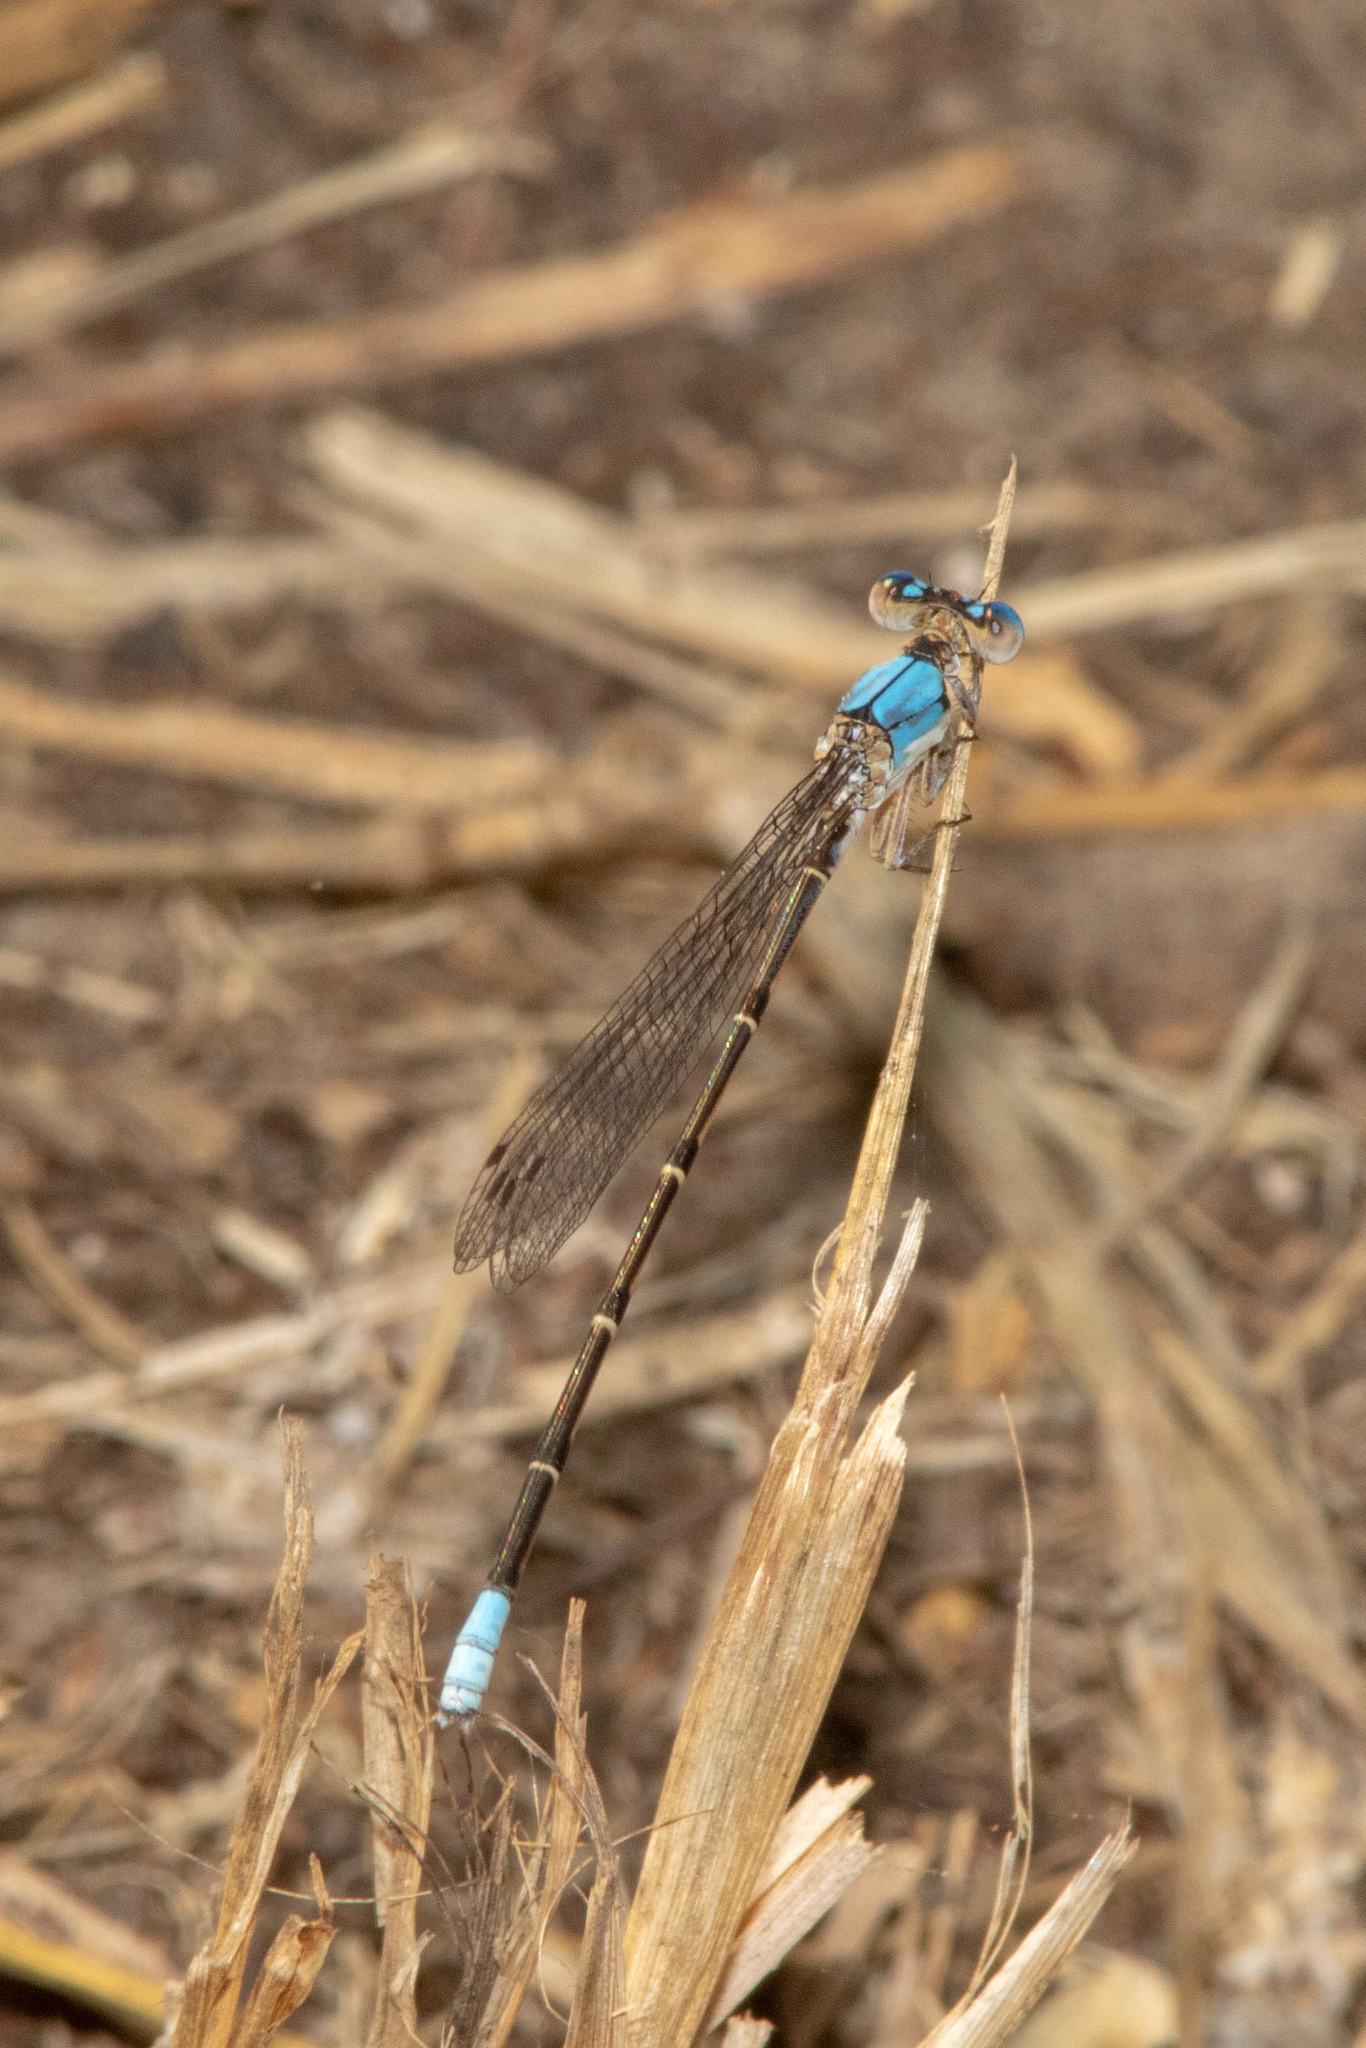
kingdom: Animalia
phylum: Arthropoda
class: Insecta
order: Odonata
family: Coenagrionidae
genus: Argia
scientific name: Argia apicalis
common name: Blue-fronted dancer
